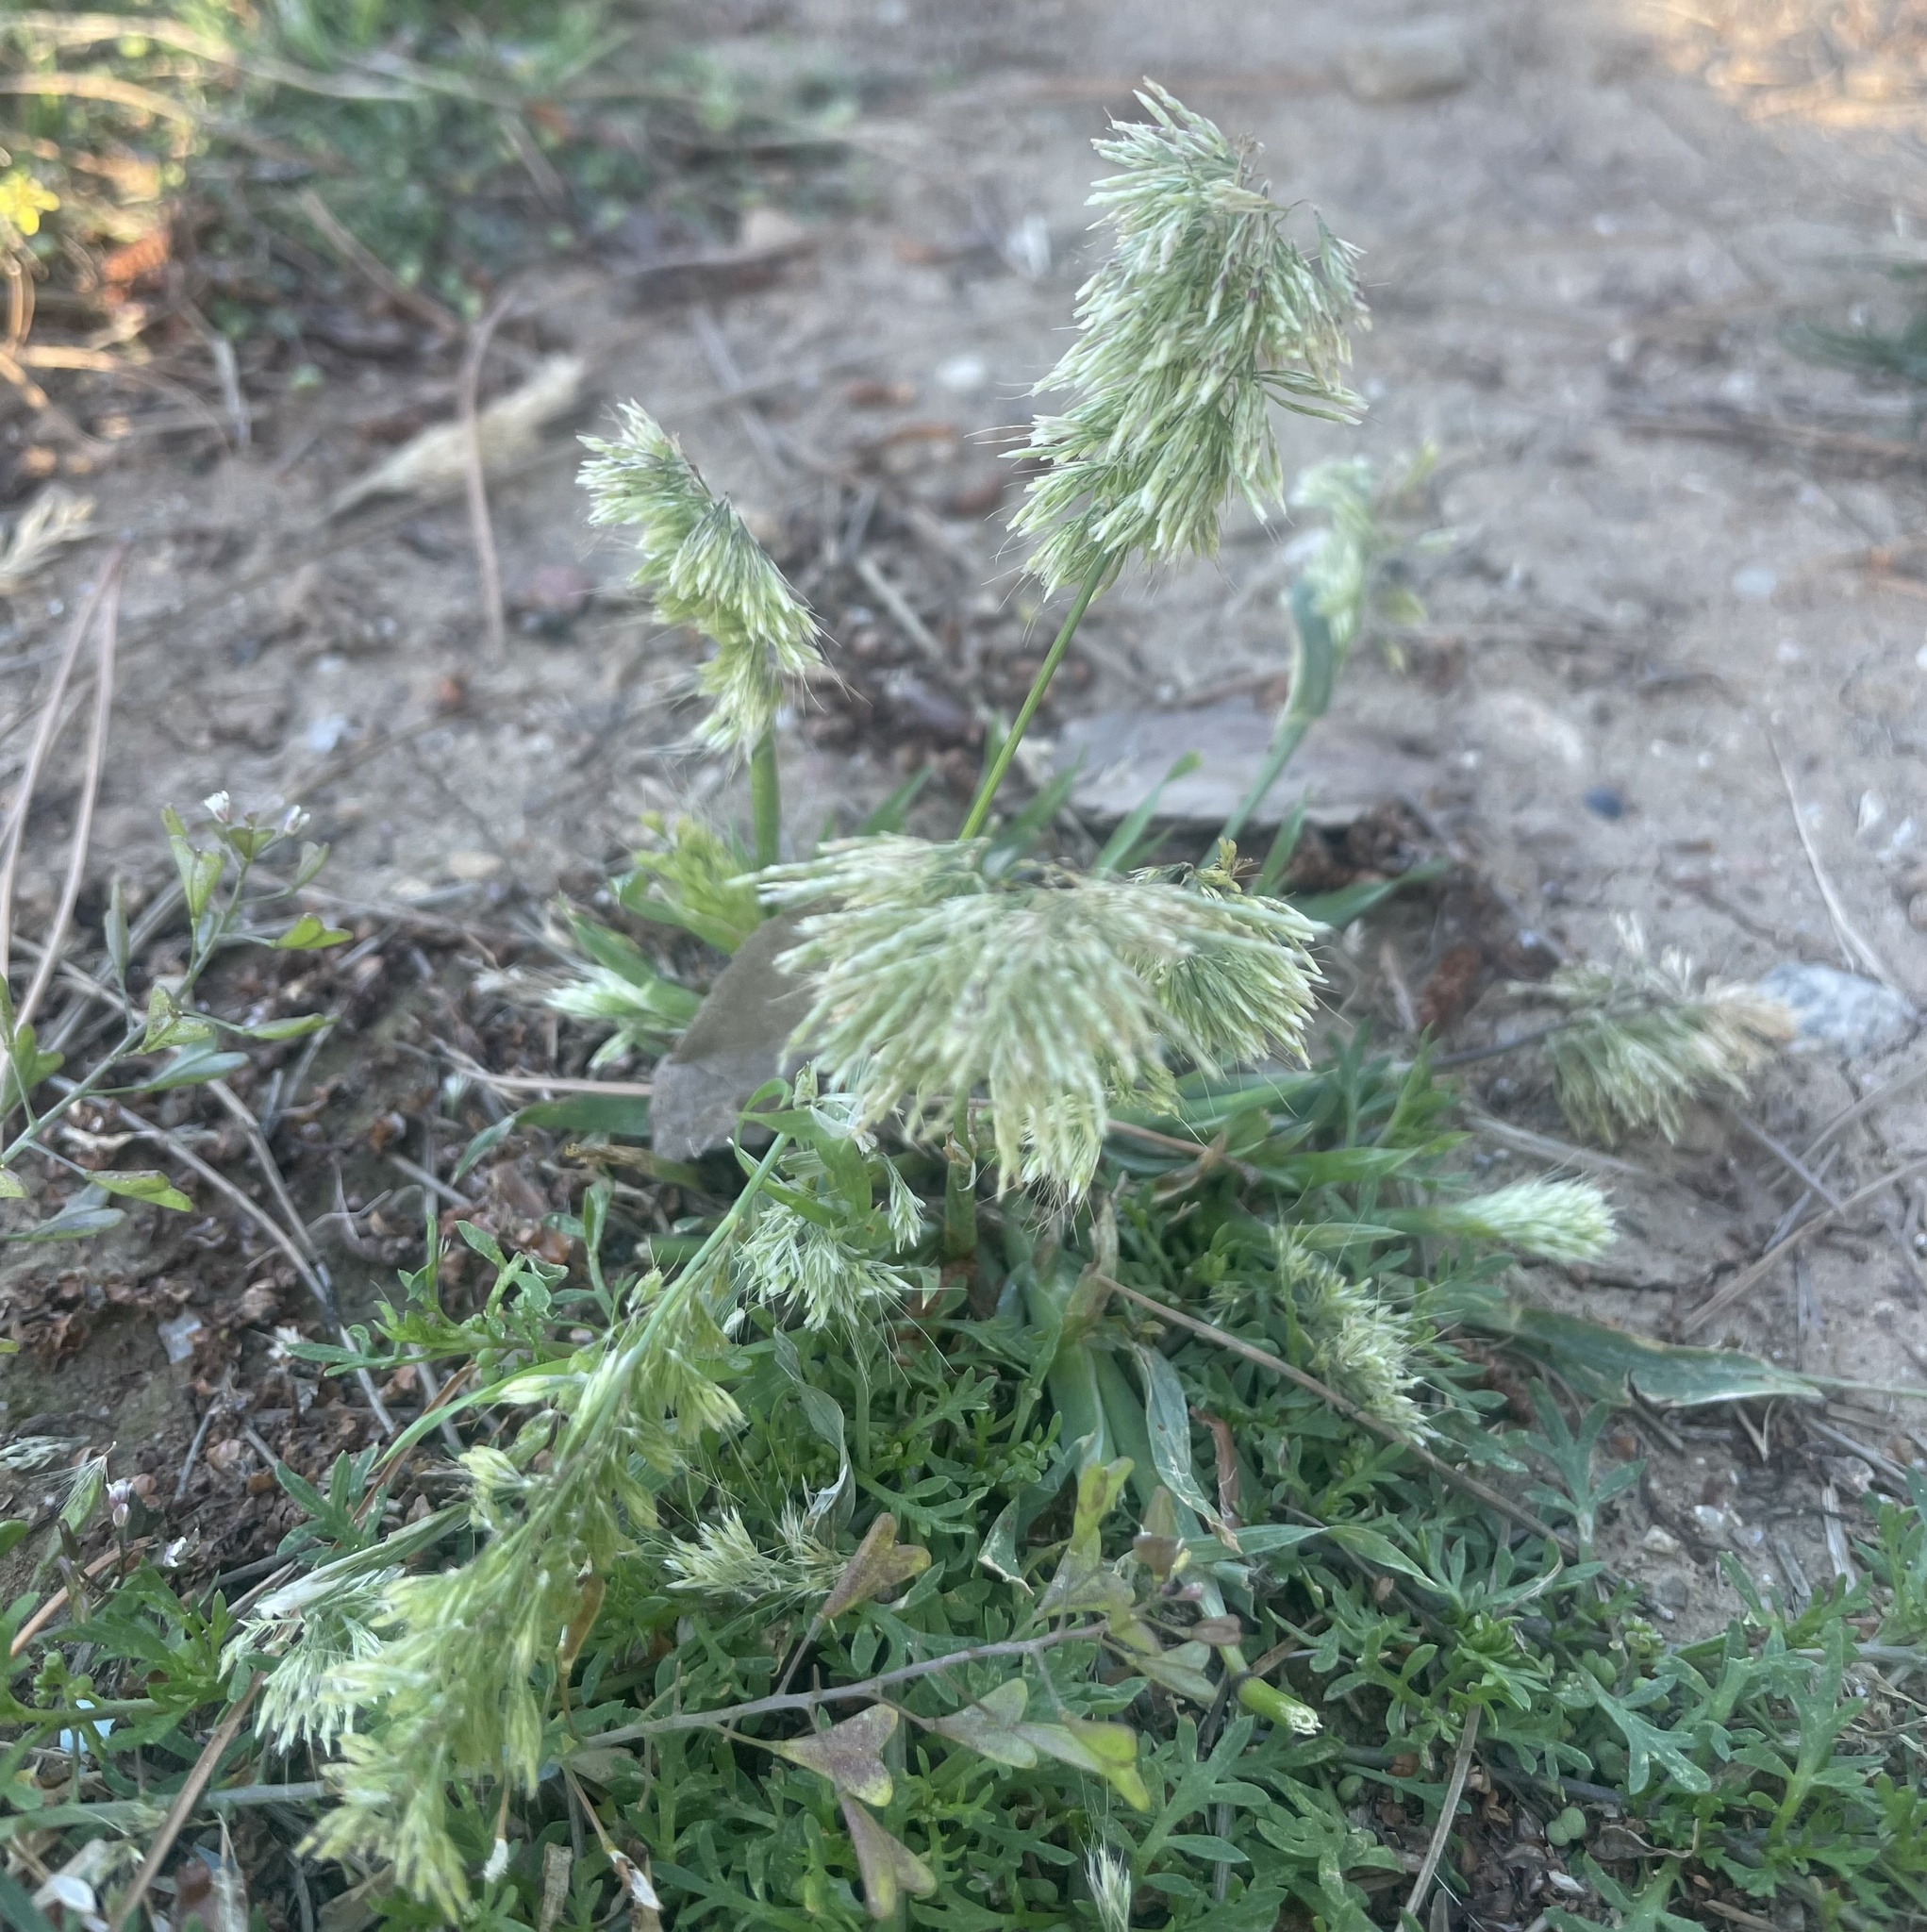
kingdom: Plantae
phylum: Tracheophyta
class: Liliopsida
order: Poales
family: Poaceae
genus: Lamarckia
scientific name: Lamarckia aurea
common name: Golden dog's-tail
